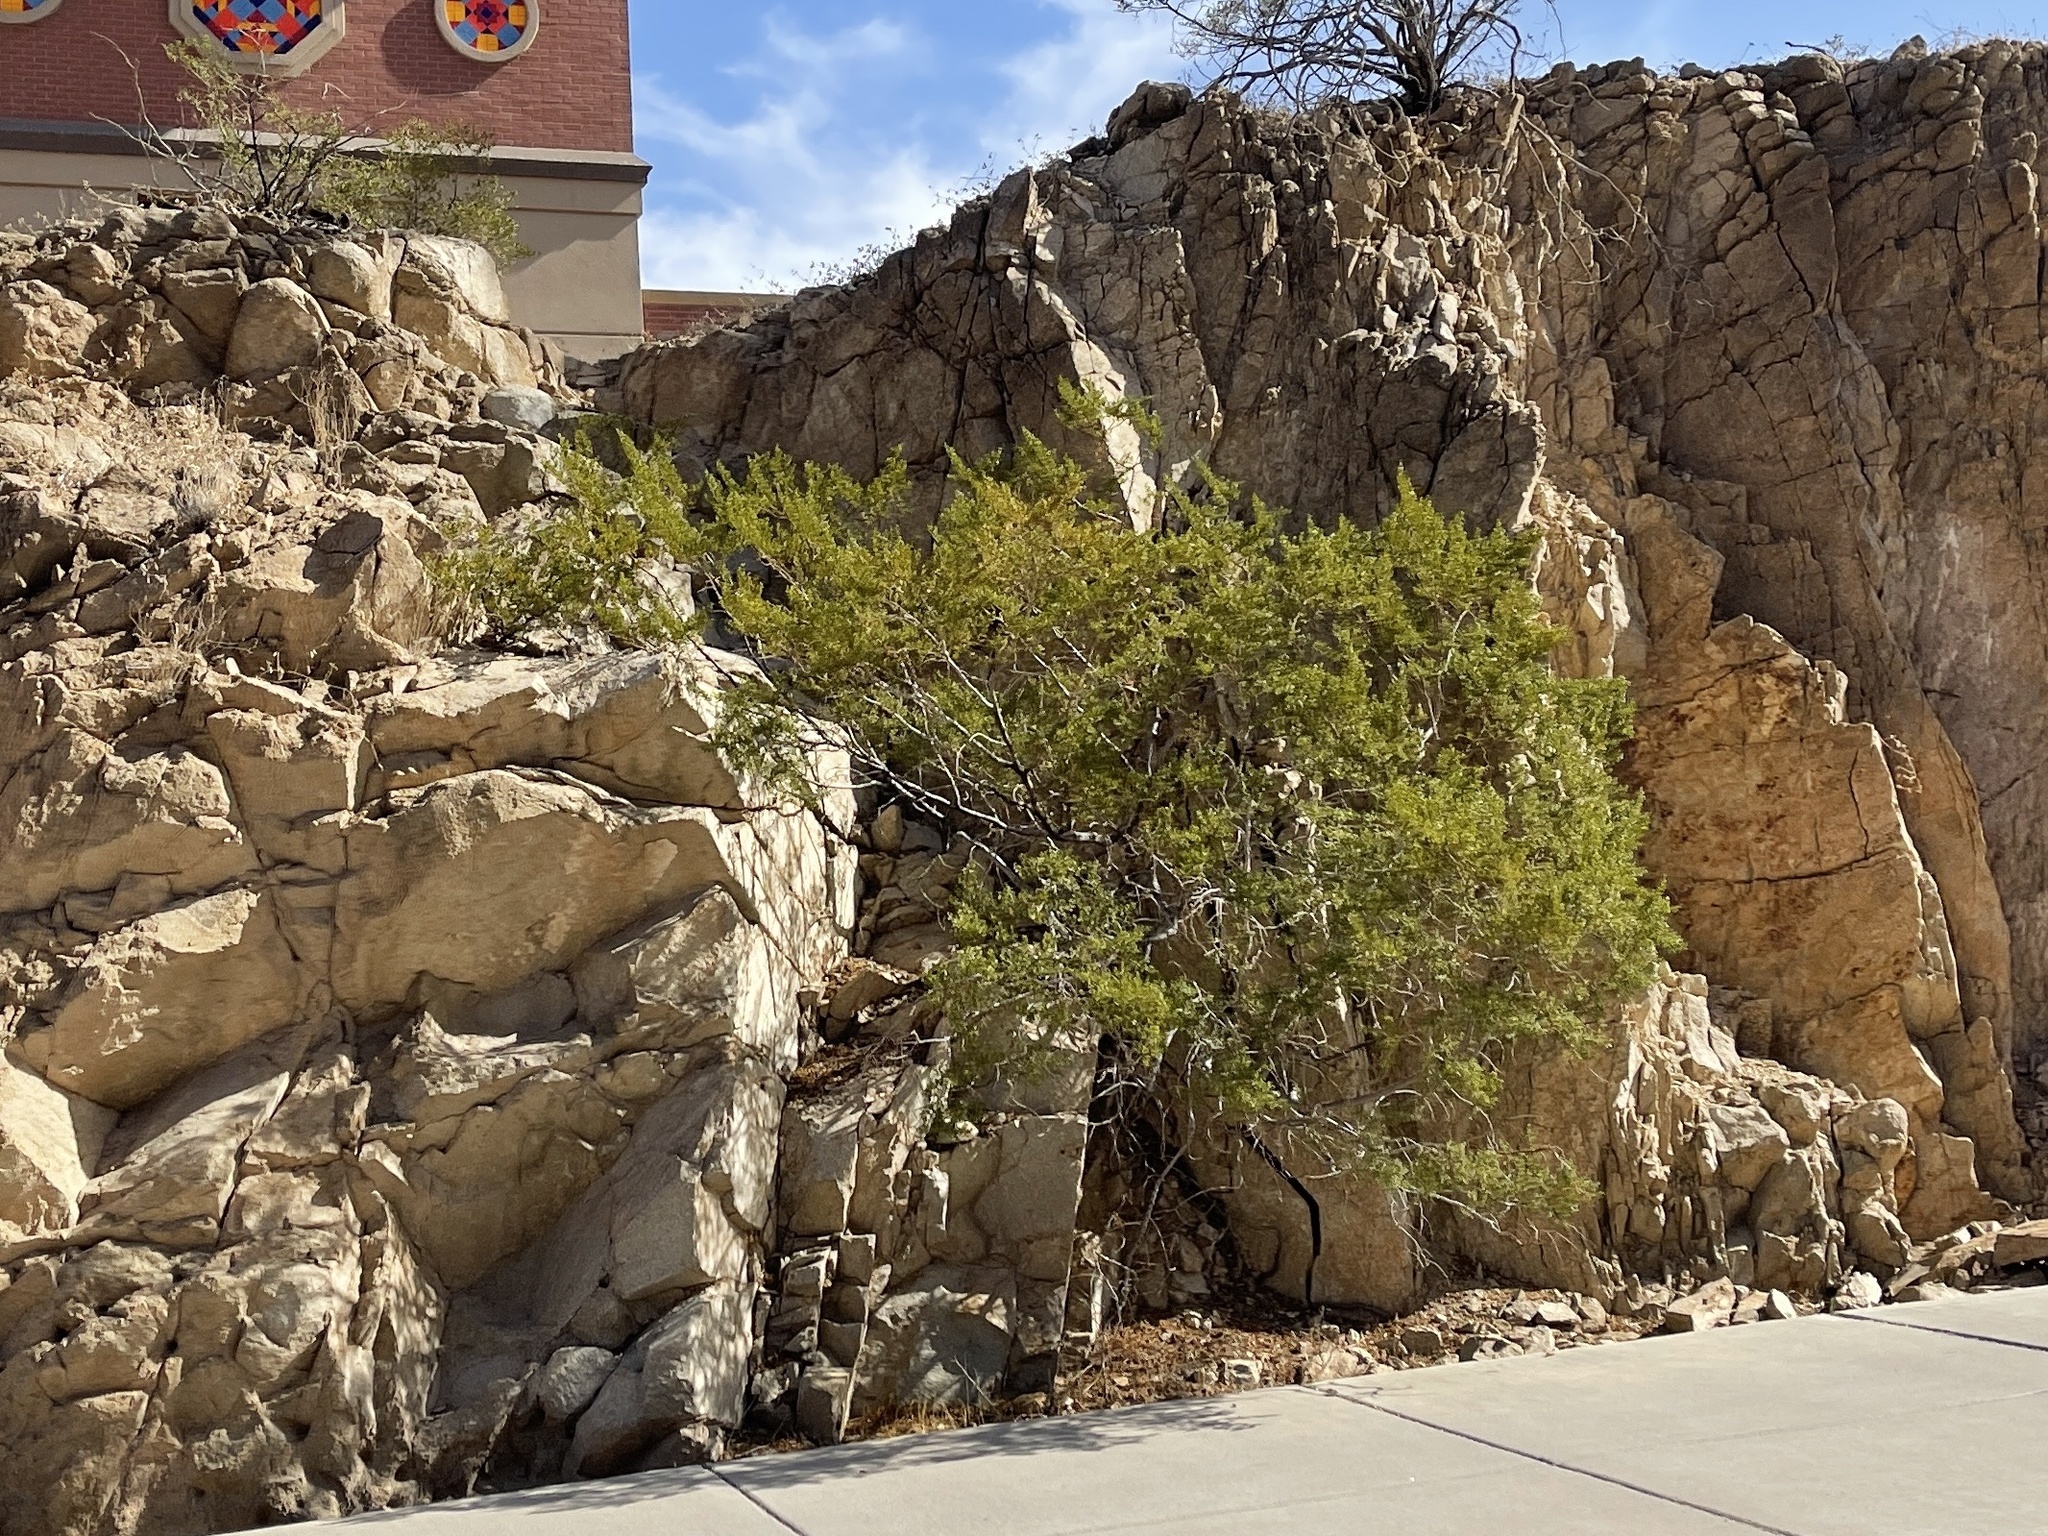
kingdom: Plantae
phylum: Tracheophyta
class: Magnoliopsida
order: Zygophyllales
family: Zygophyllaceae
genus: Larrea
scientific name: Larrea tridentata
